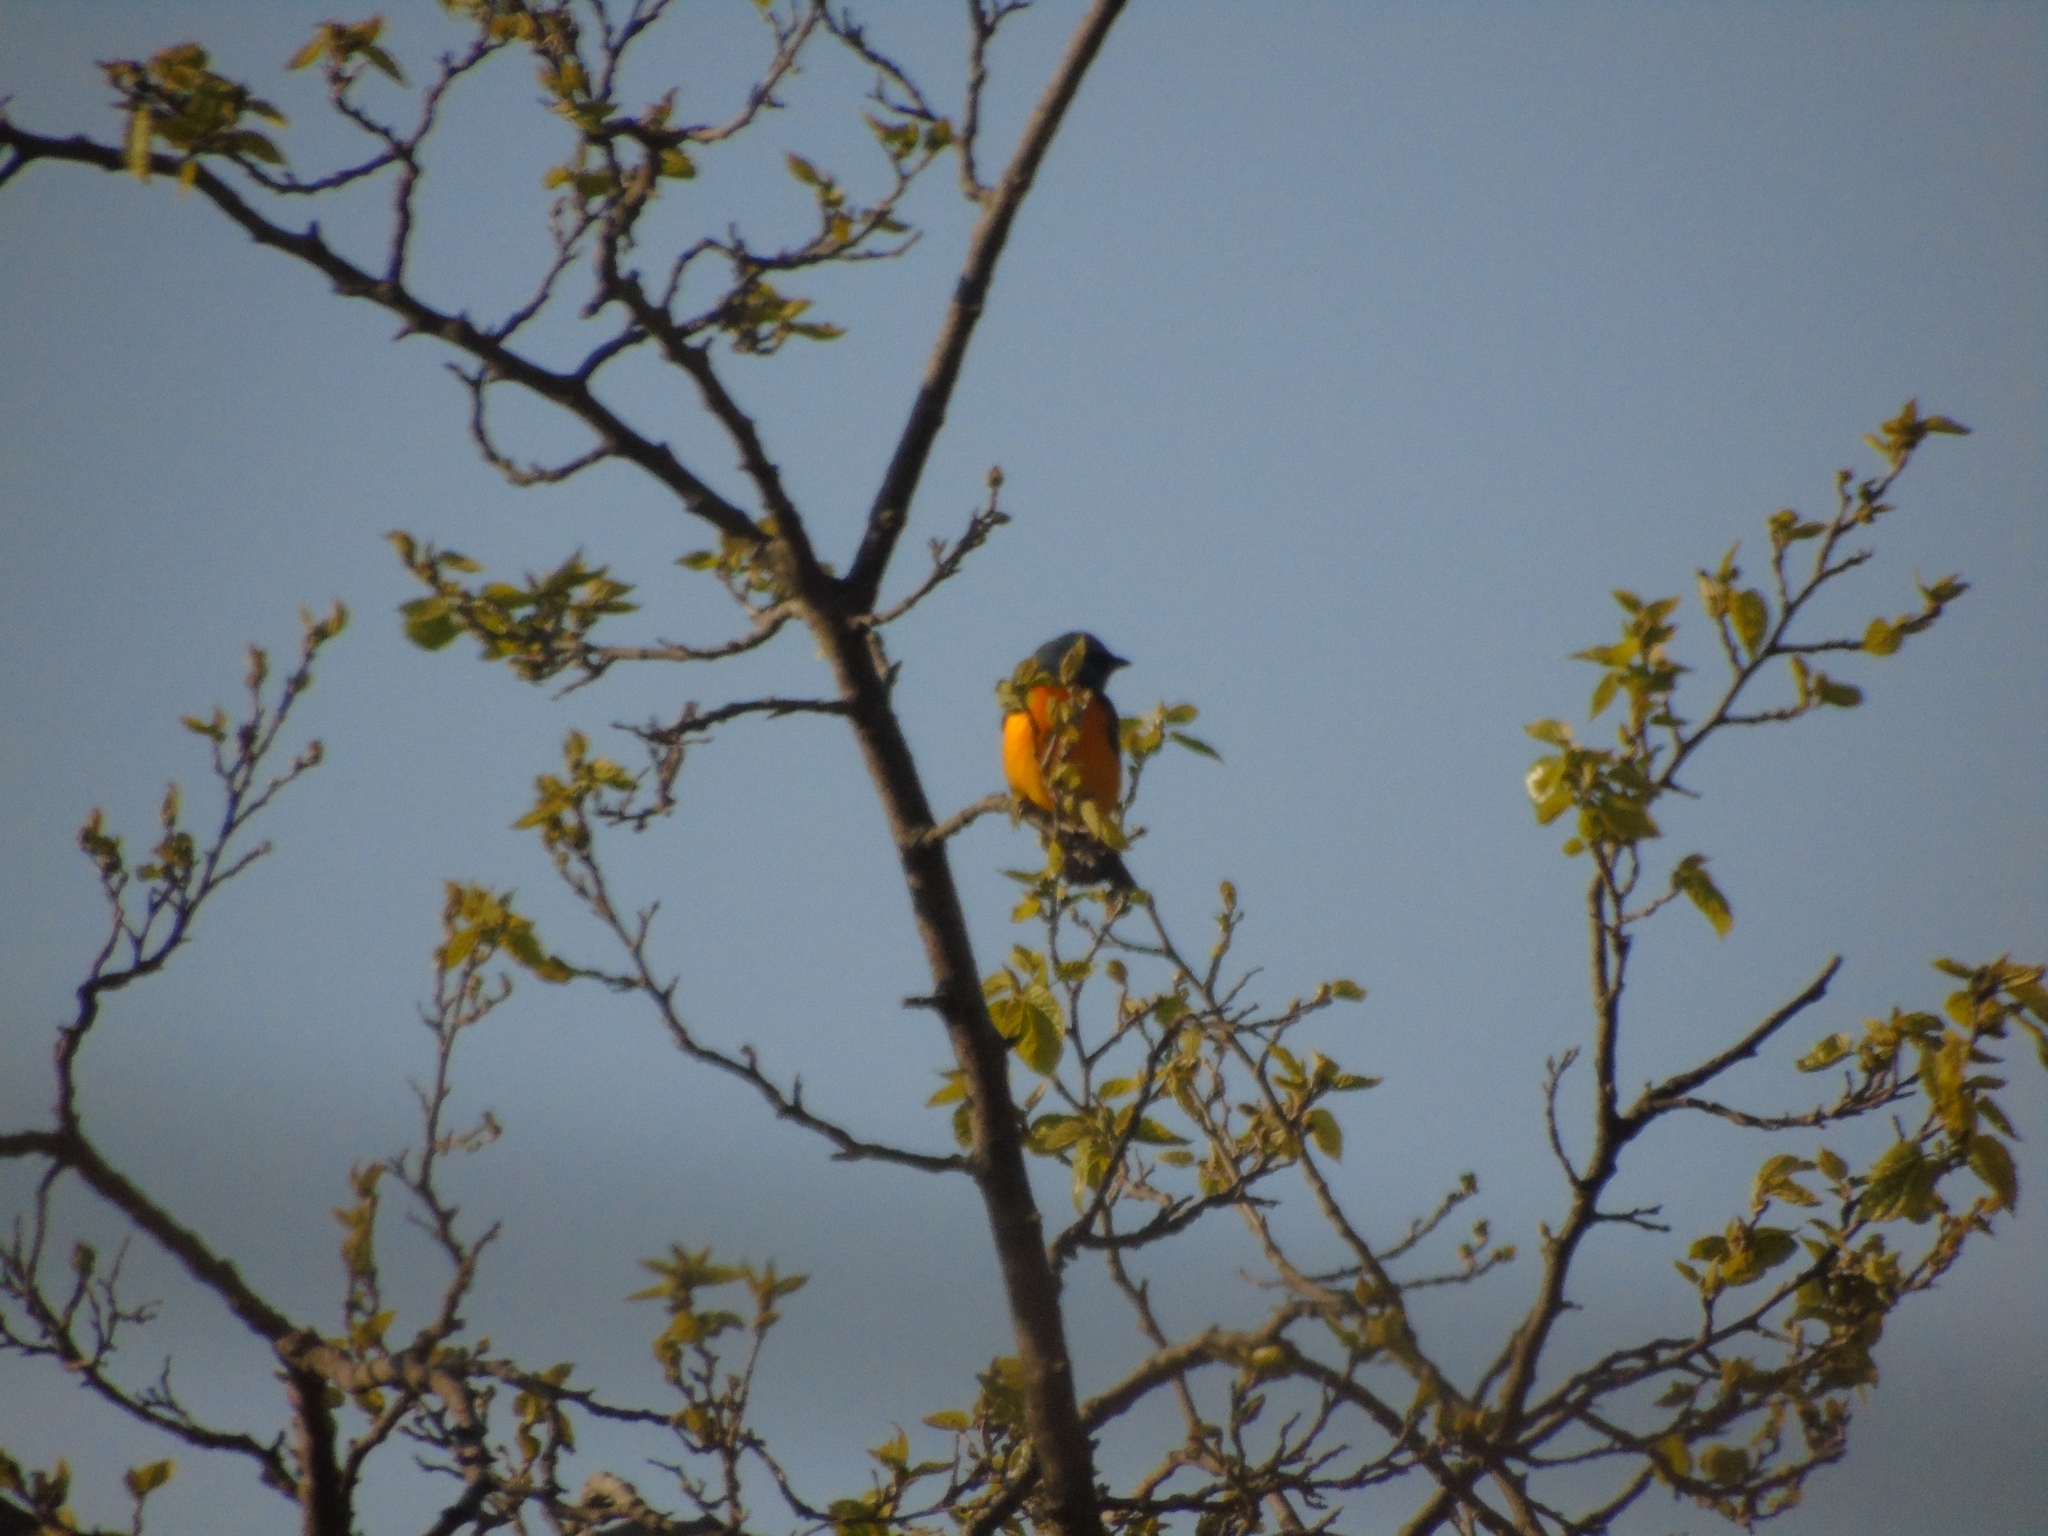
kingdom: Animalia
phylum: Chordata
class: Aves
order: Passeriformes
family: Thraupidae
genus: Rauenia
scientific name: Rauenia bonariensis
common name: Blue-and-yellow tanager
